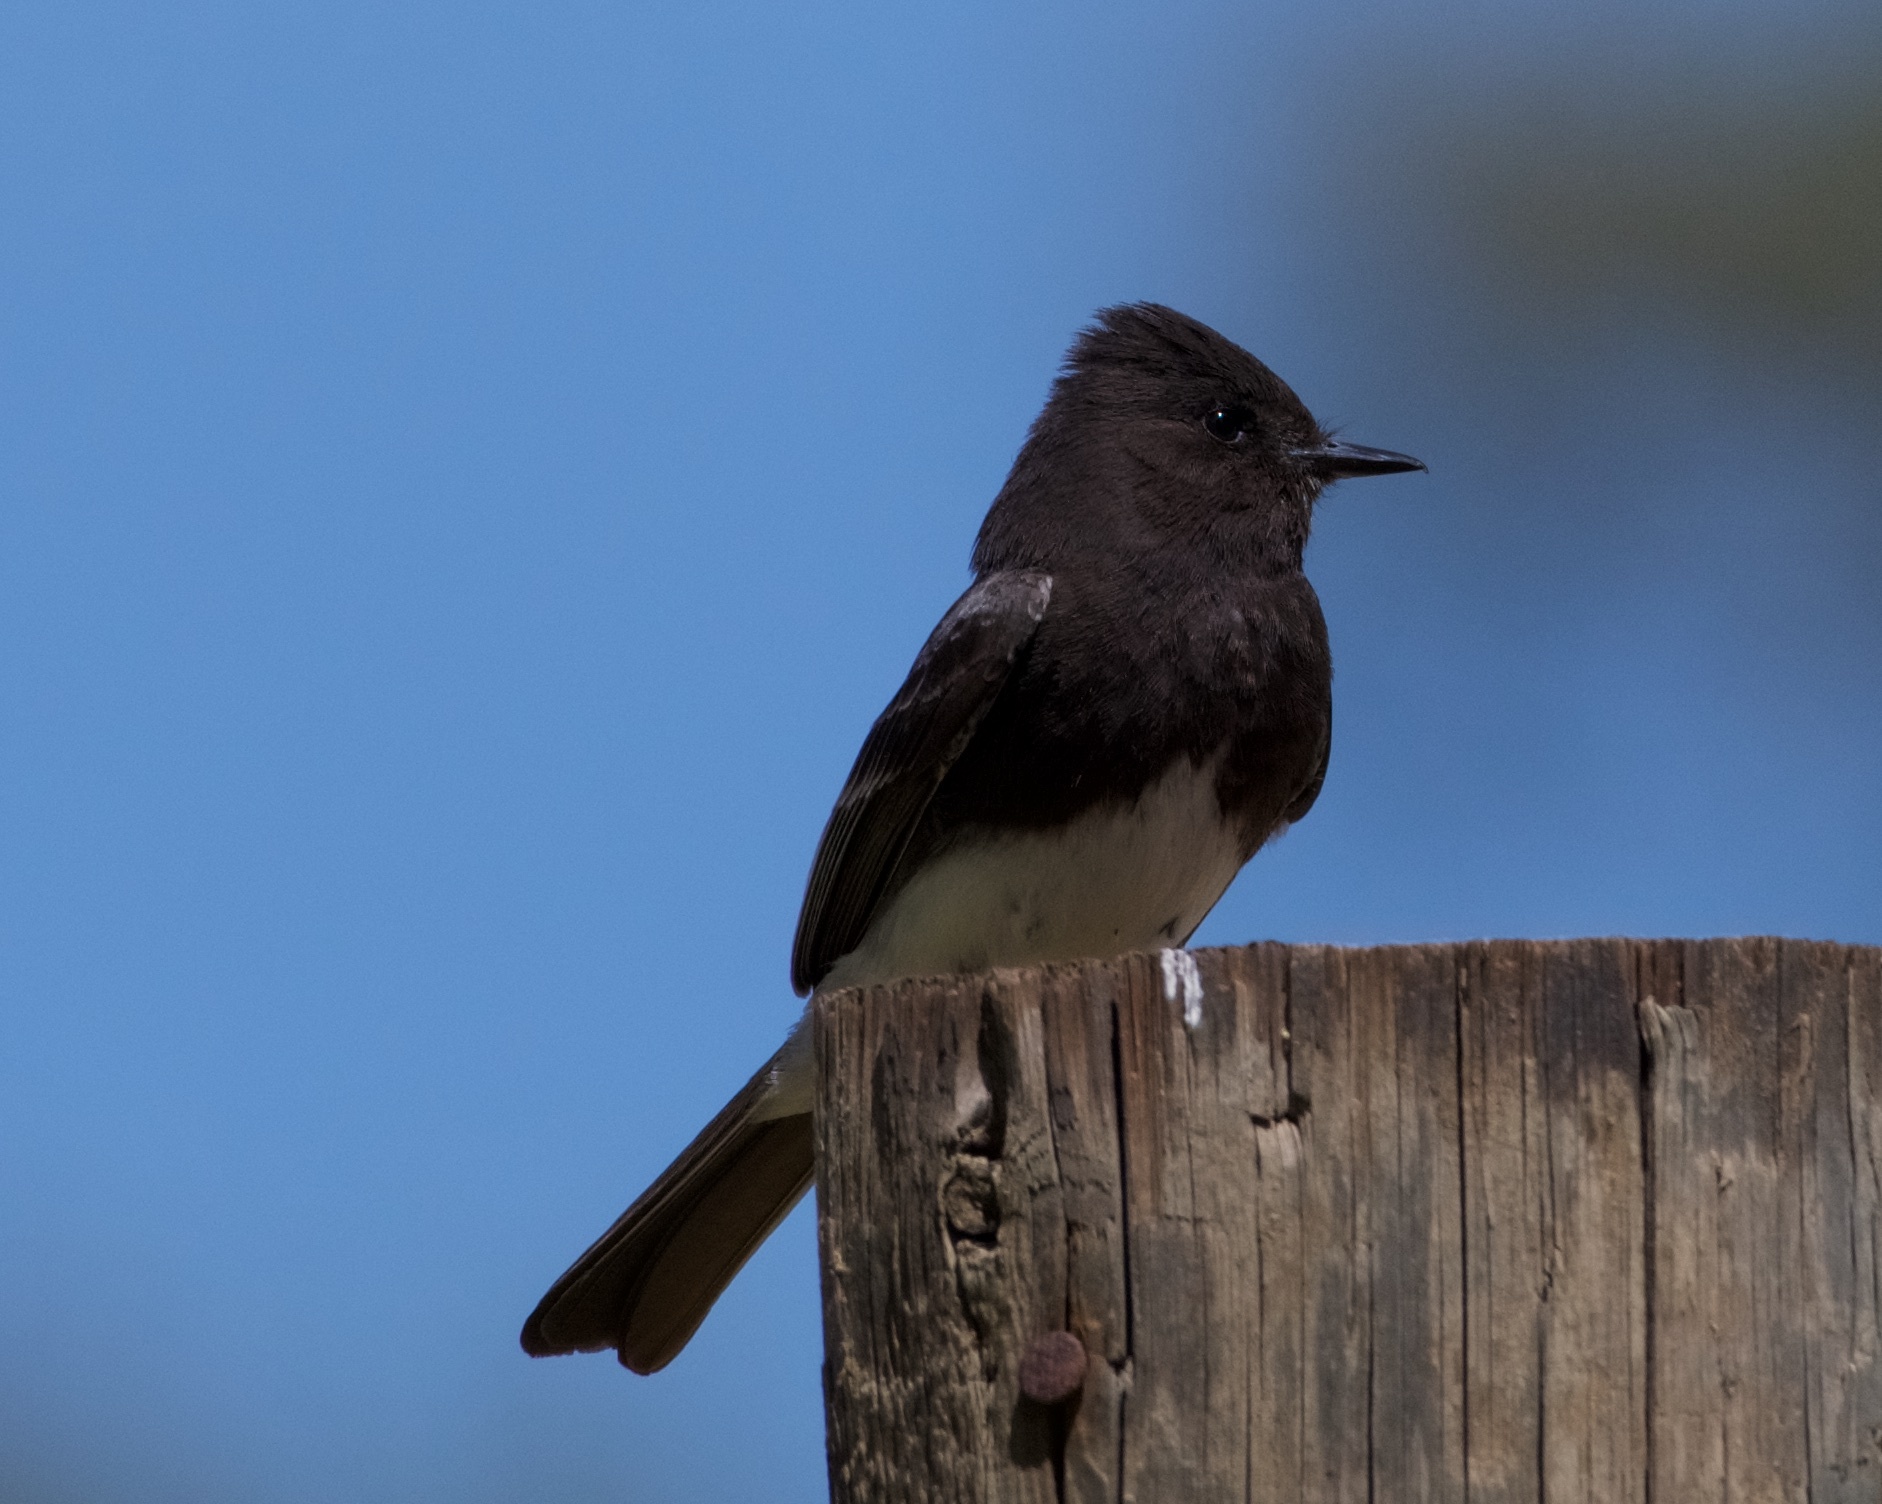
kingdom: Animalia
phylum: Chordata
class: Aves
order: Passeriformes
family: Tyrannidae
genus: Sayornis
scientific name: Sayornis nigricans
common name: Black phoebe
